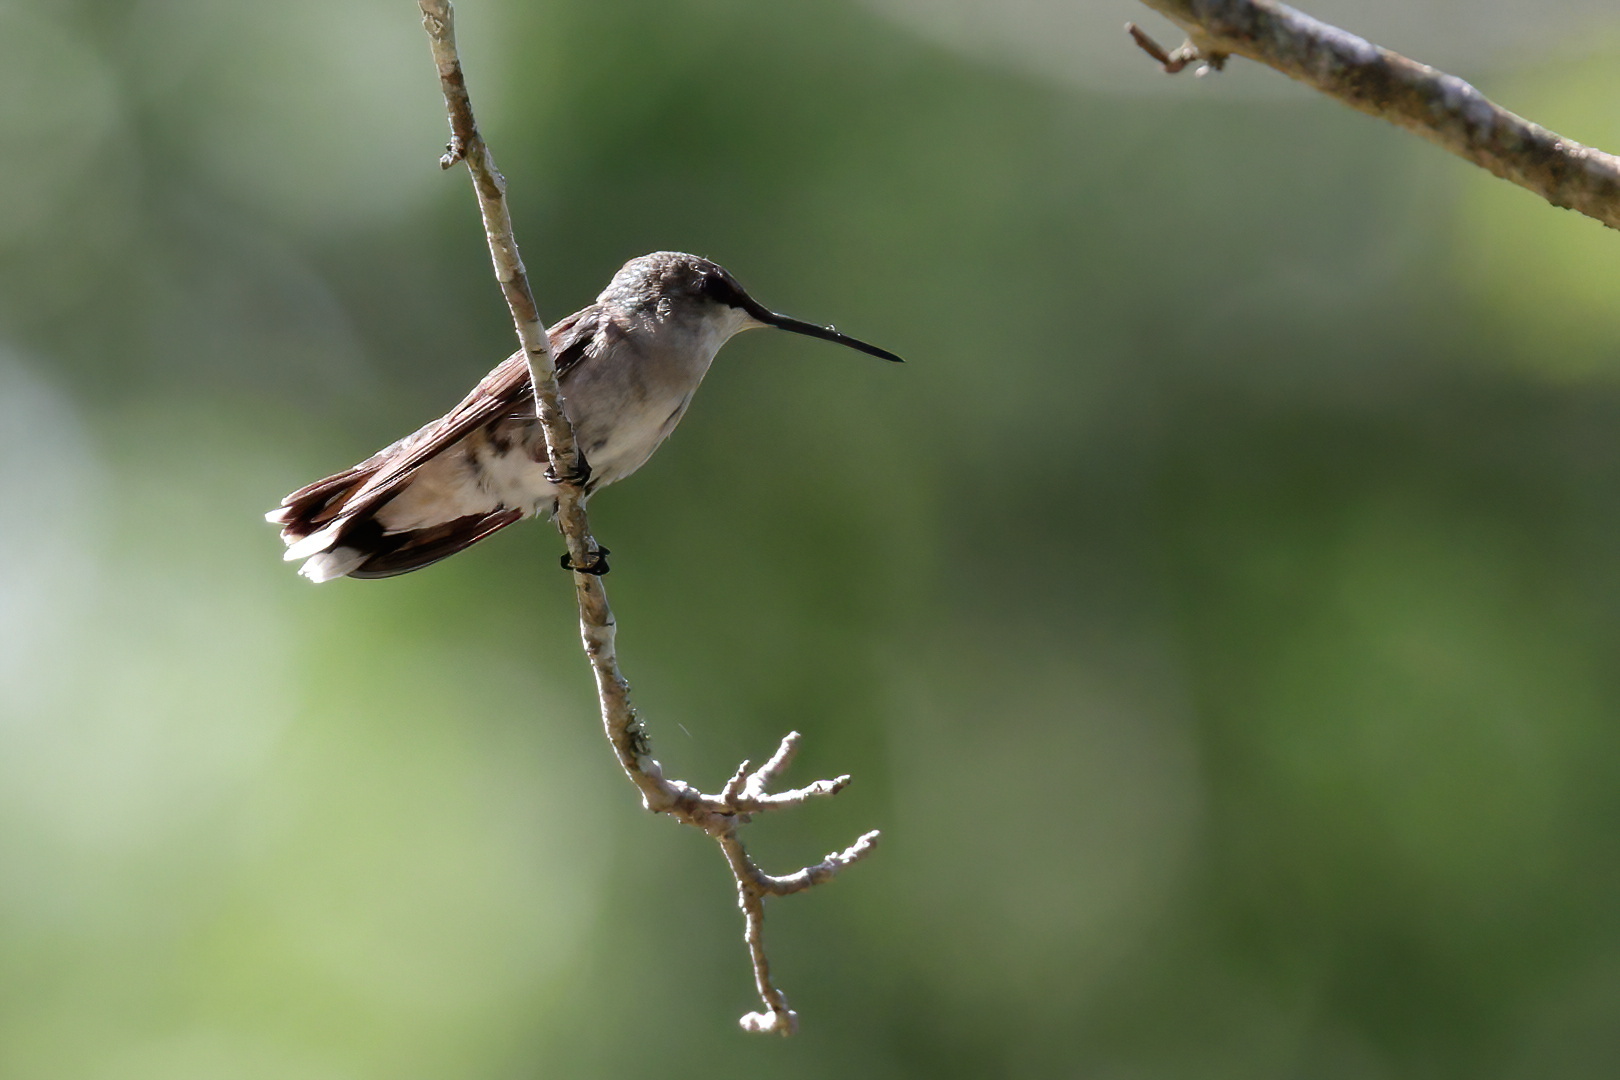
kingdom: Animalia
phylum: Chordata
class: Aves
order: Apodiformes
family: Trochilidae
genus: Archilochus
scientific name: Archilochus colubris
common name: Ruby-throated hummingbird
